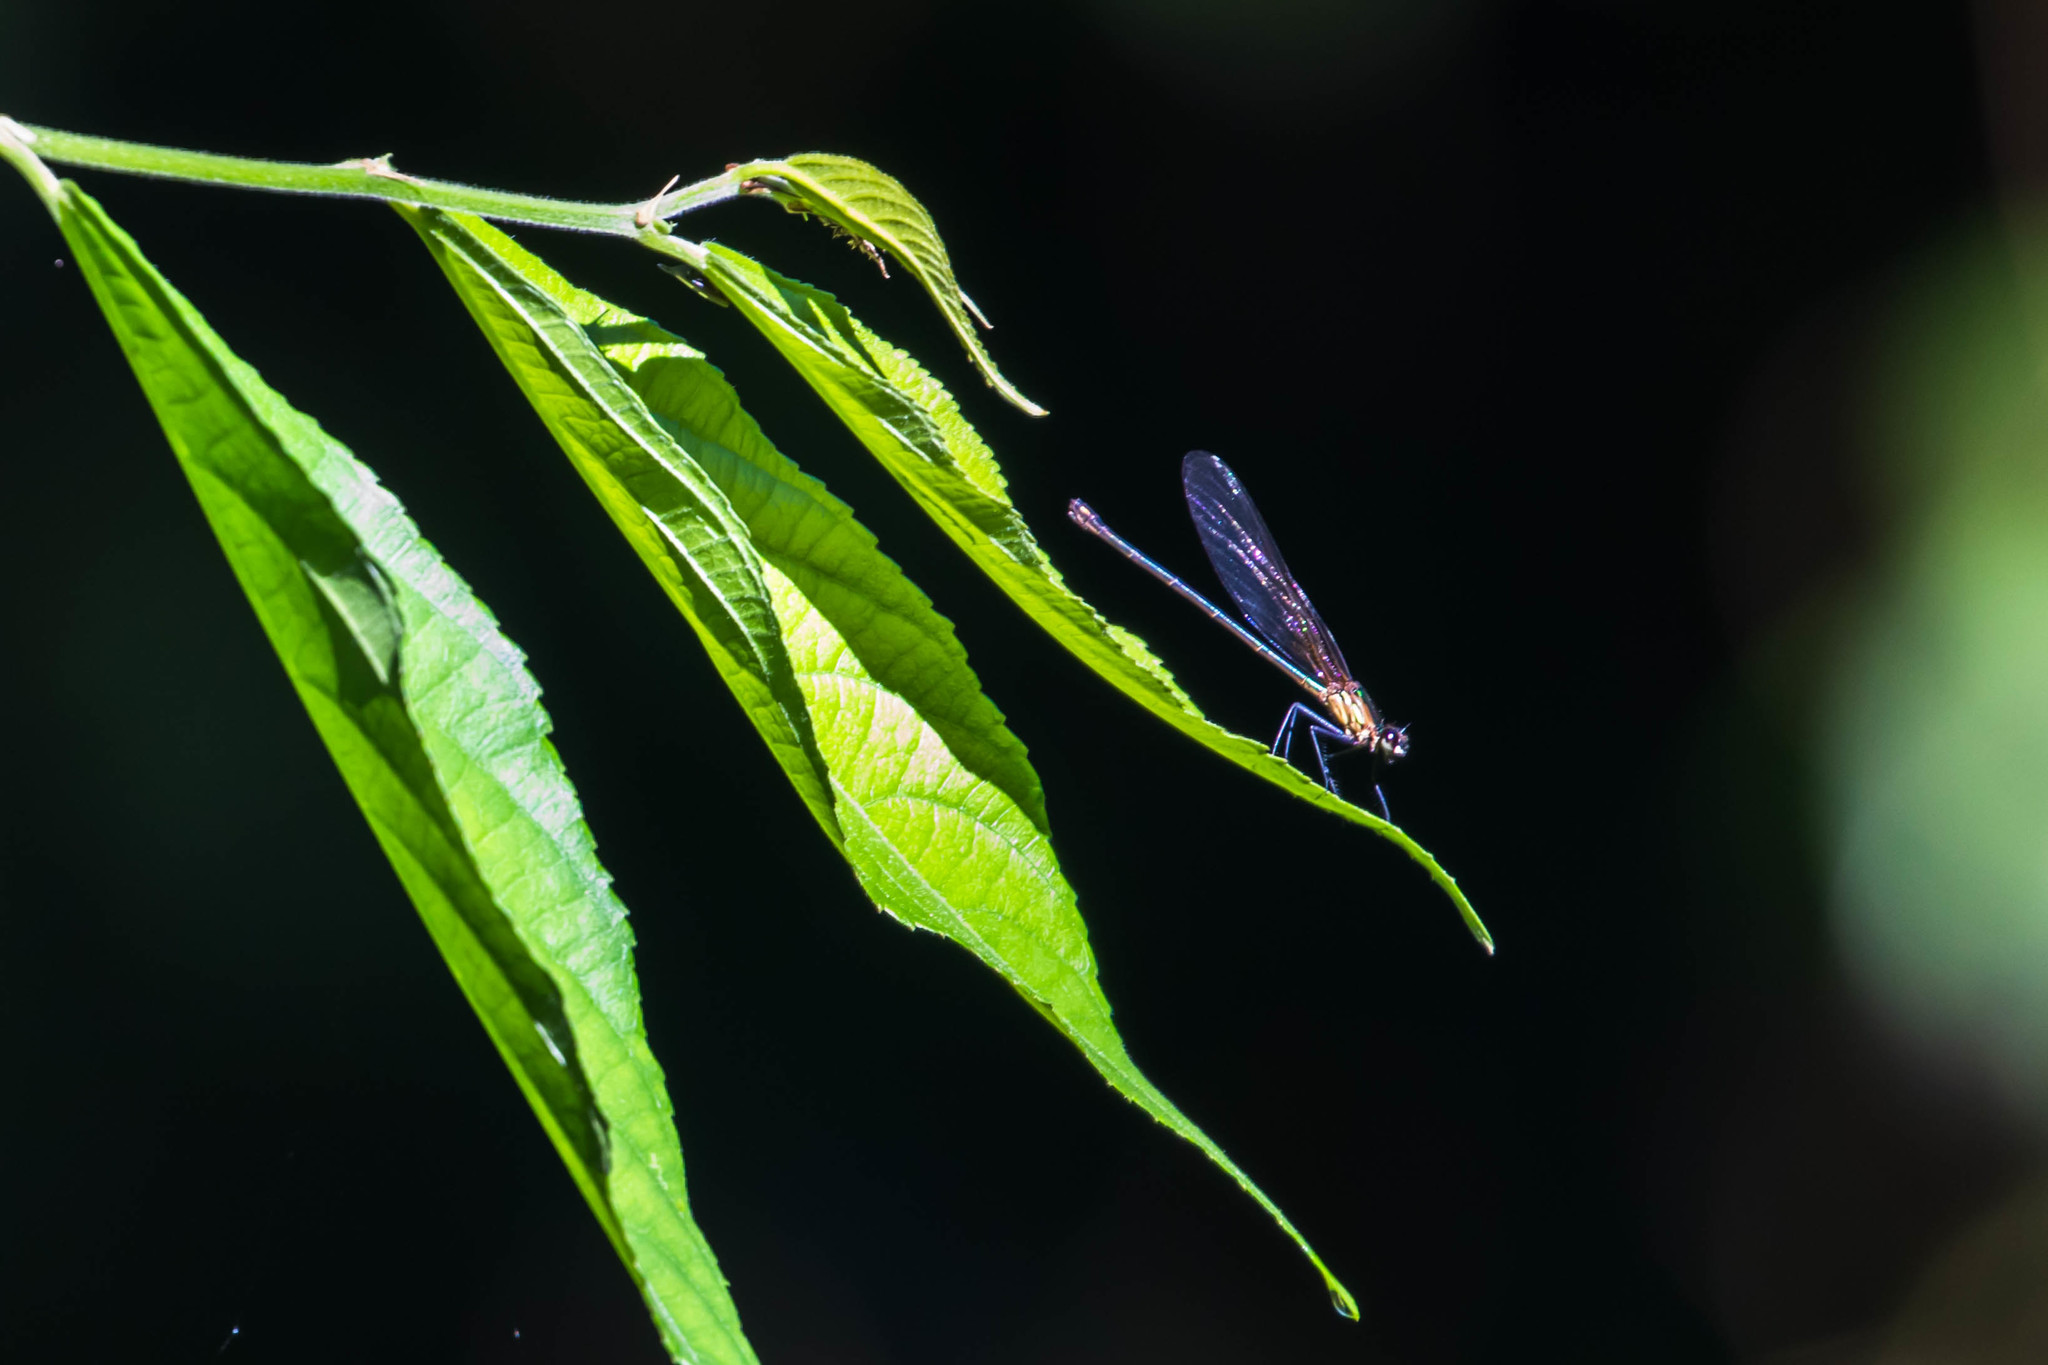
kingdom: Animalia
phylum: Arthropoda
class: Insecta
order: Odonata
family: Calopterygidae
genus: Hetaerina
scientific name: Hetaerina occisa
